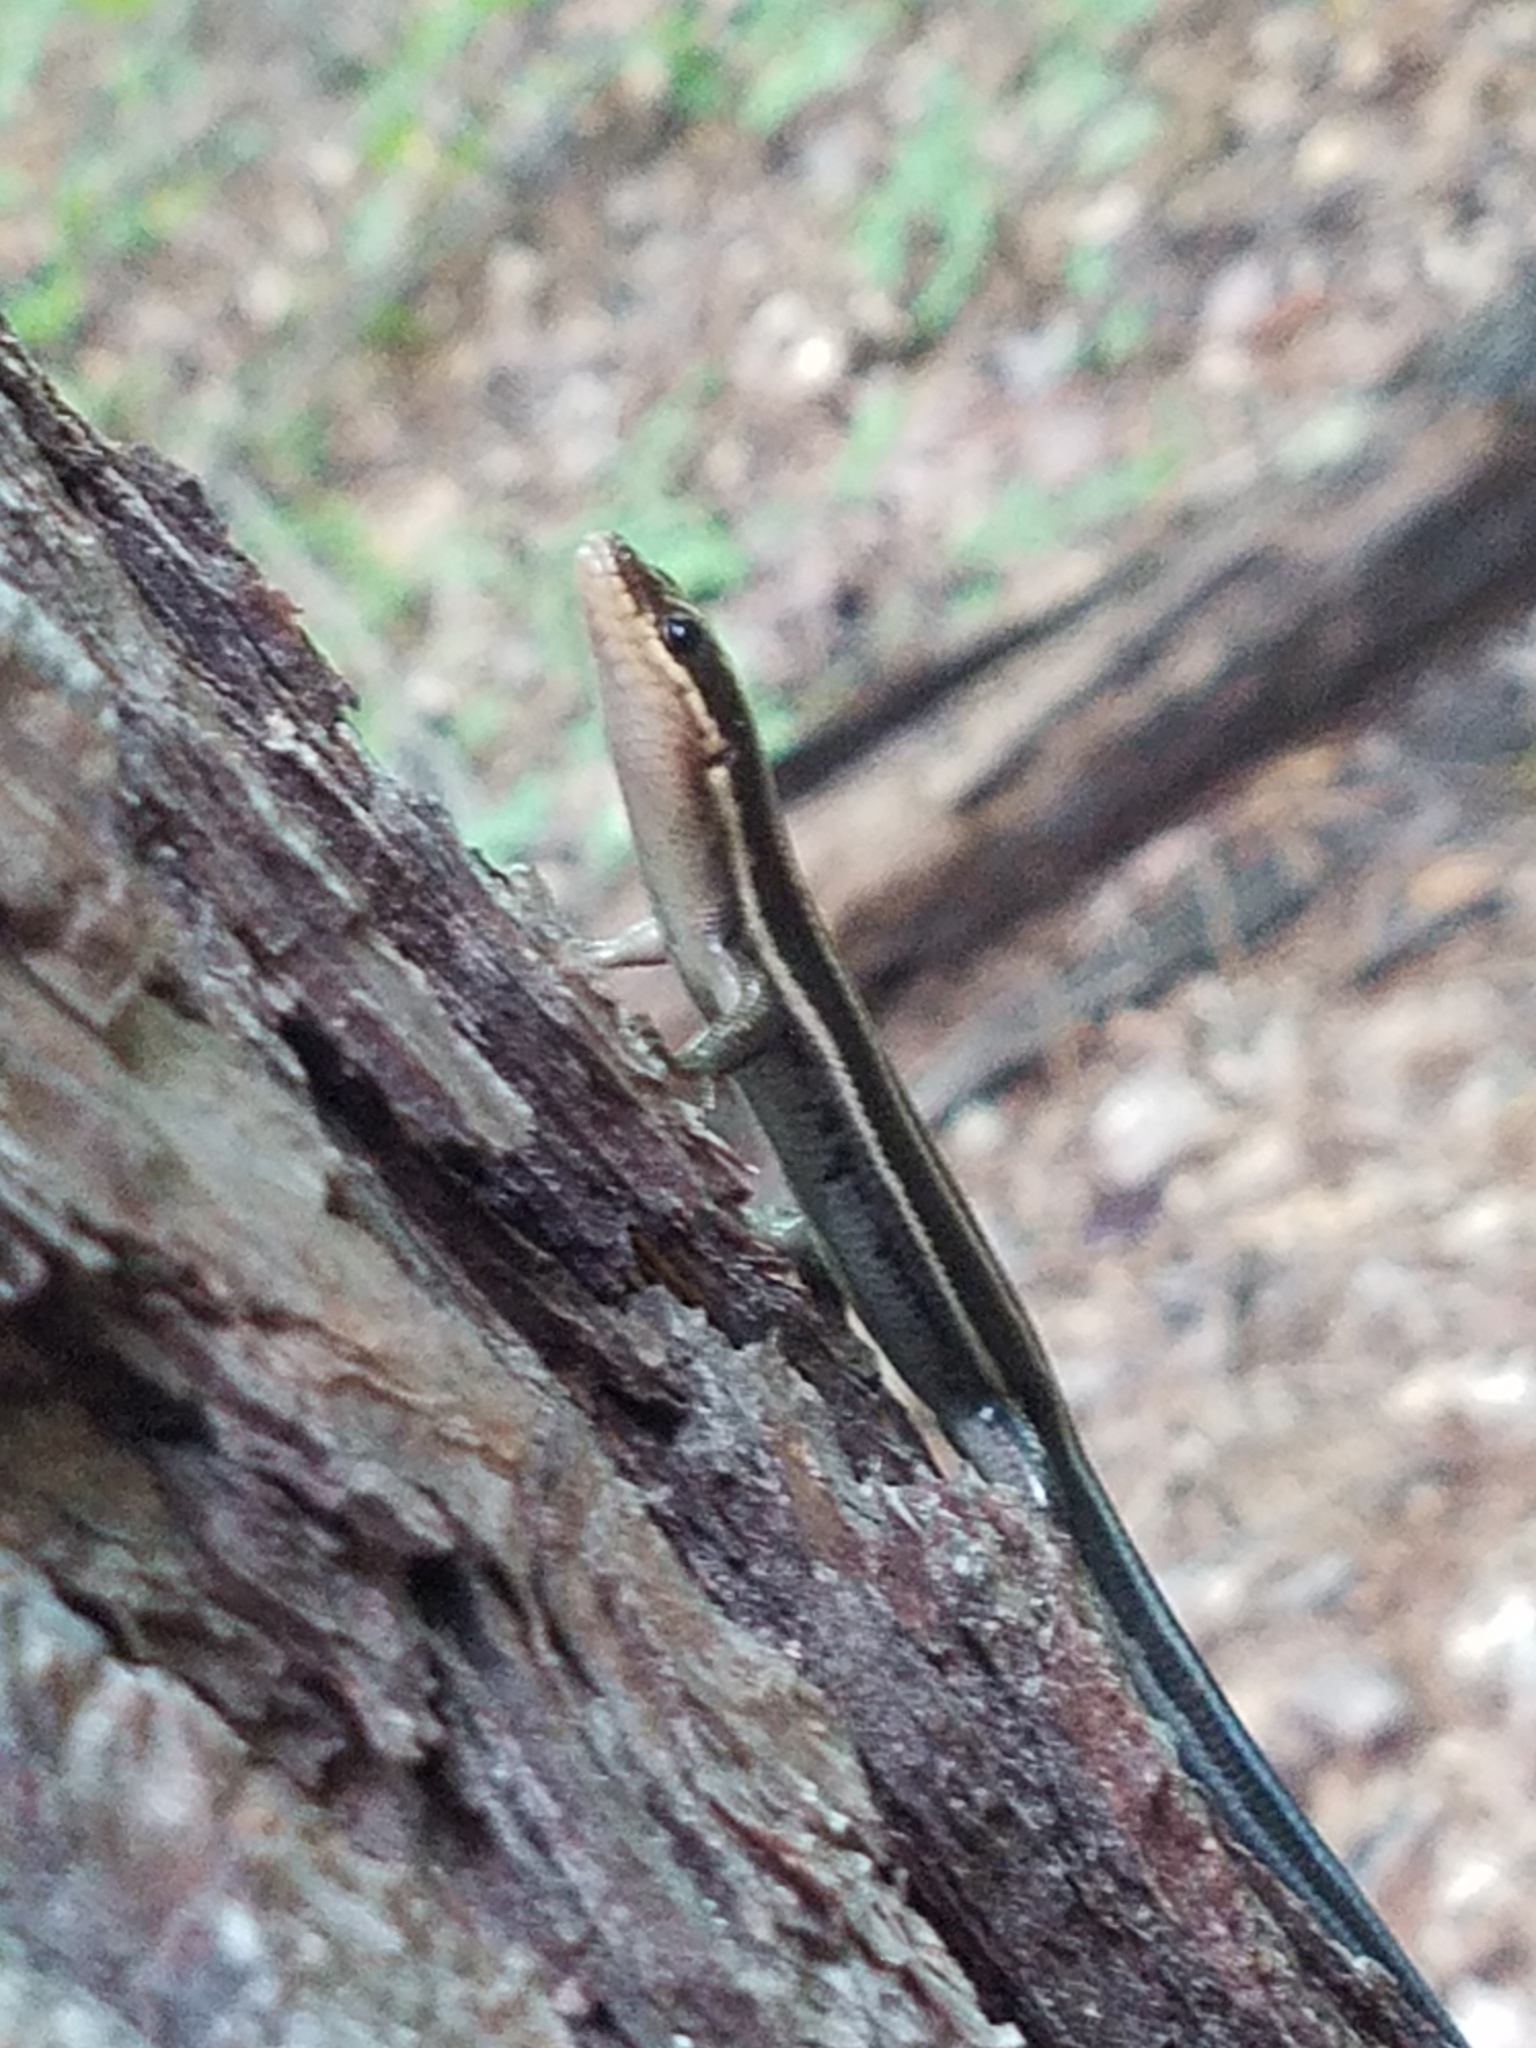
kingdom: Animalia
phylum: Chordata
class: Squamata
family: Scincidae
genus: Plestiodon
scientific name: Plestiodon fasciatus
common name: Five-lined skink
